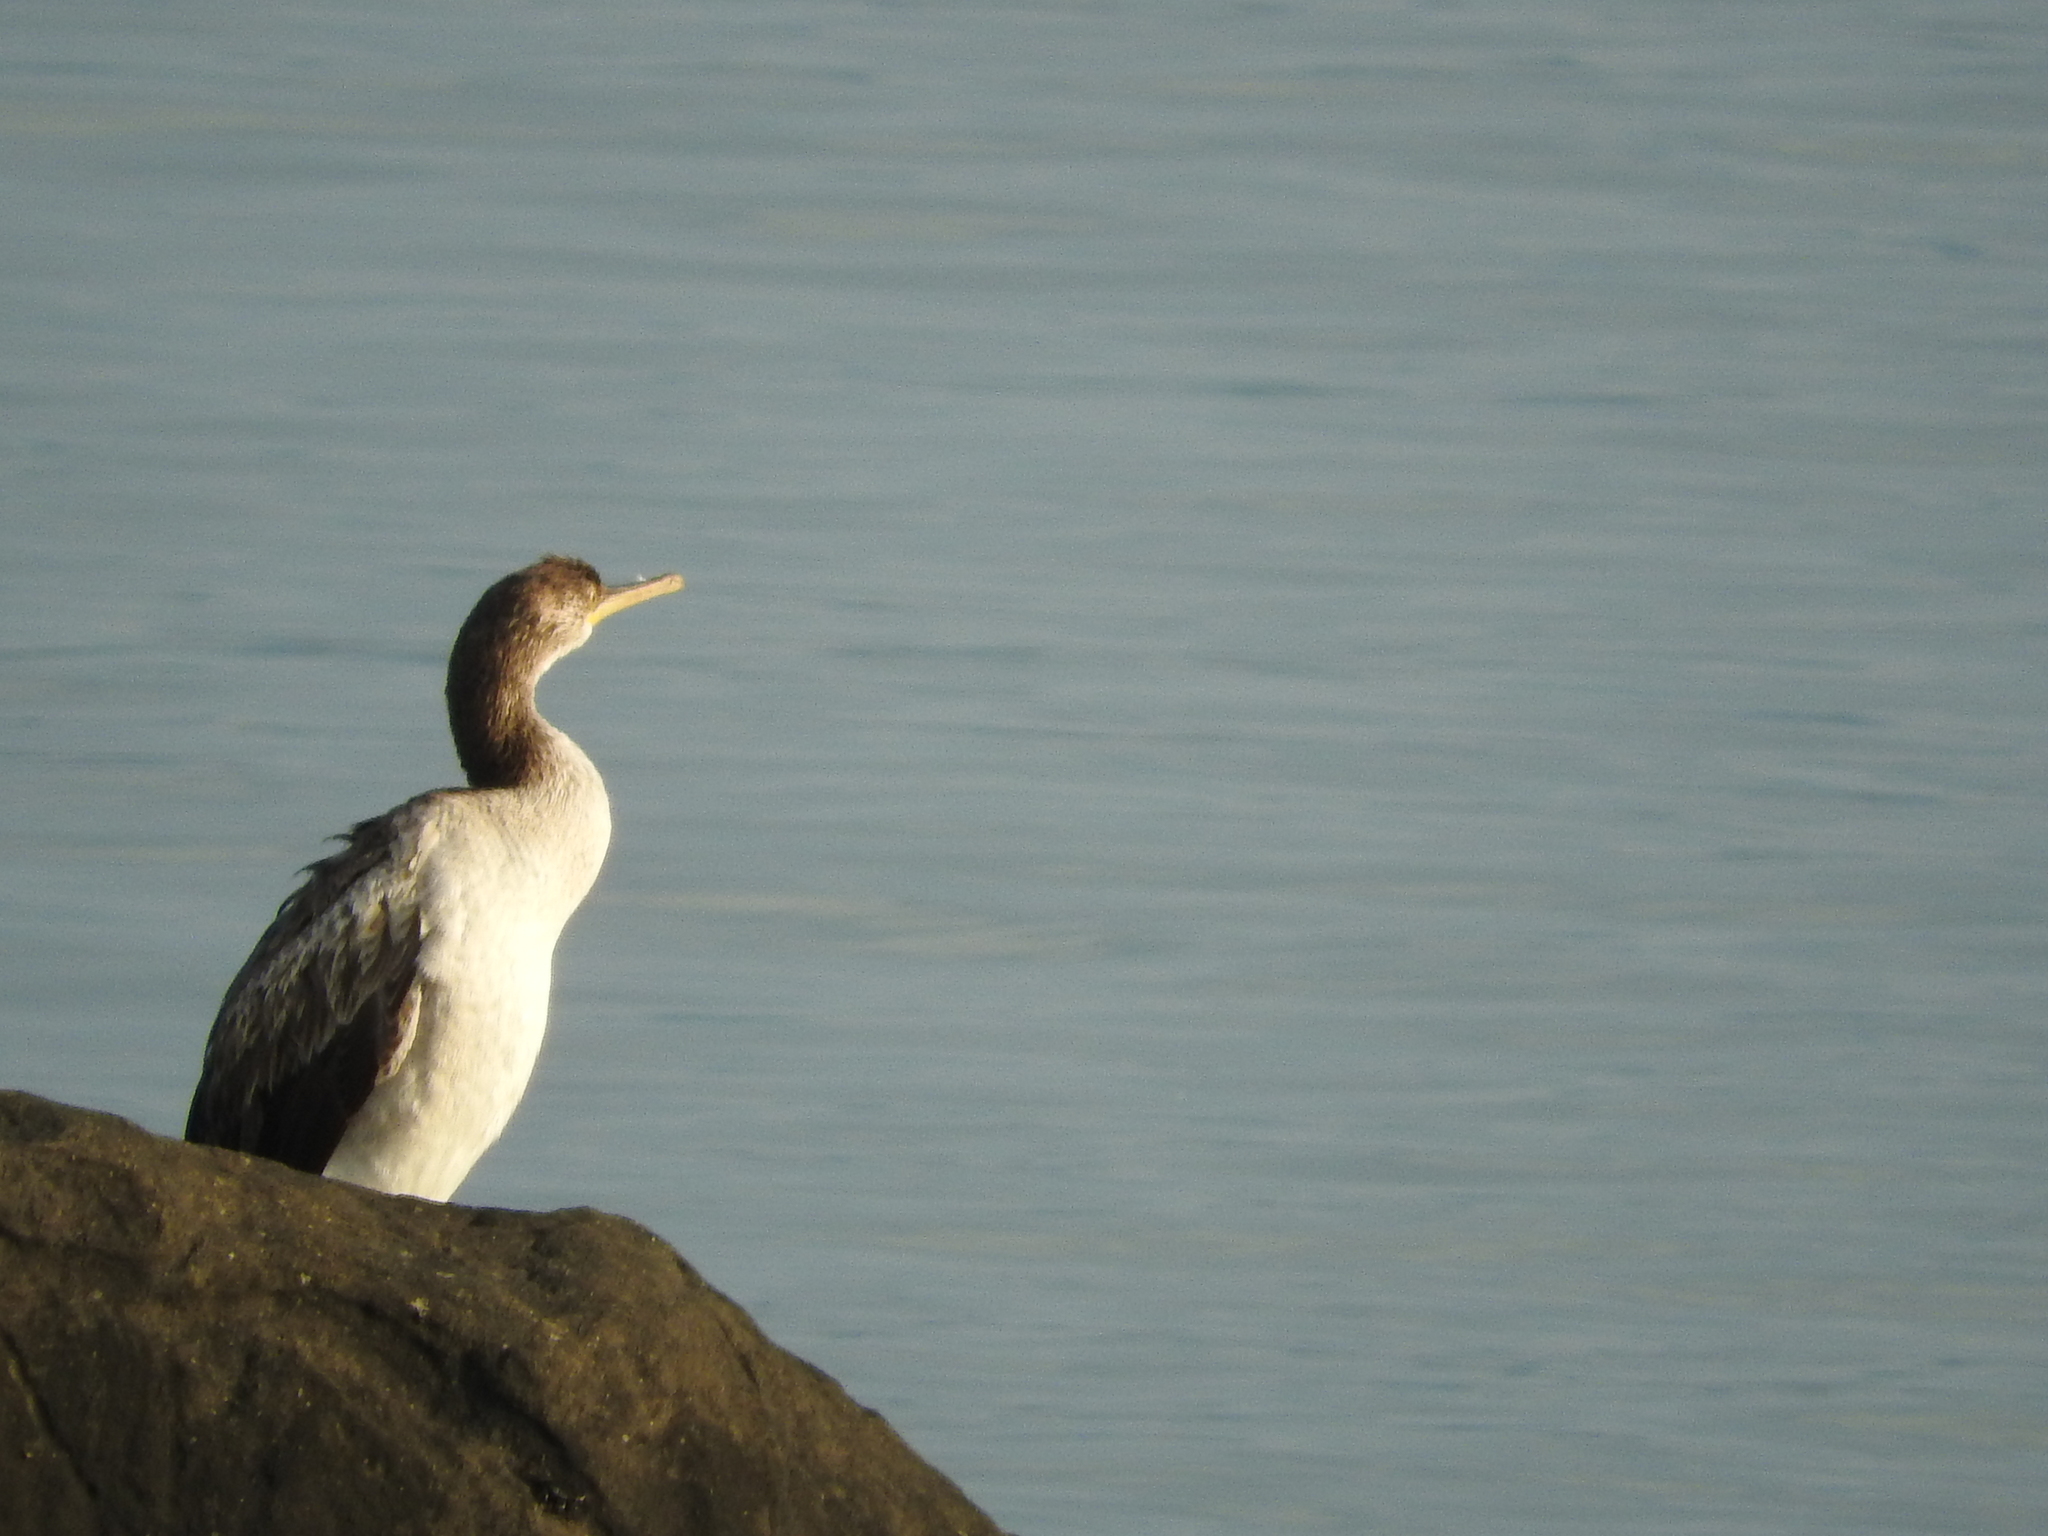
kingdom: Animalia
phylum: Chordata
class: Aves
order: Suliformes
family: Phalacrocoracidae
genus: Phalacrocorax
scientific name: Phalacrocorax aristotelis
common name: European shag
